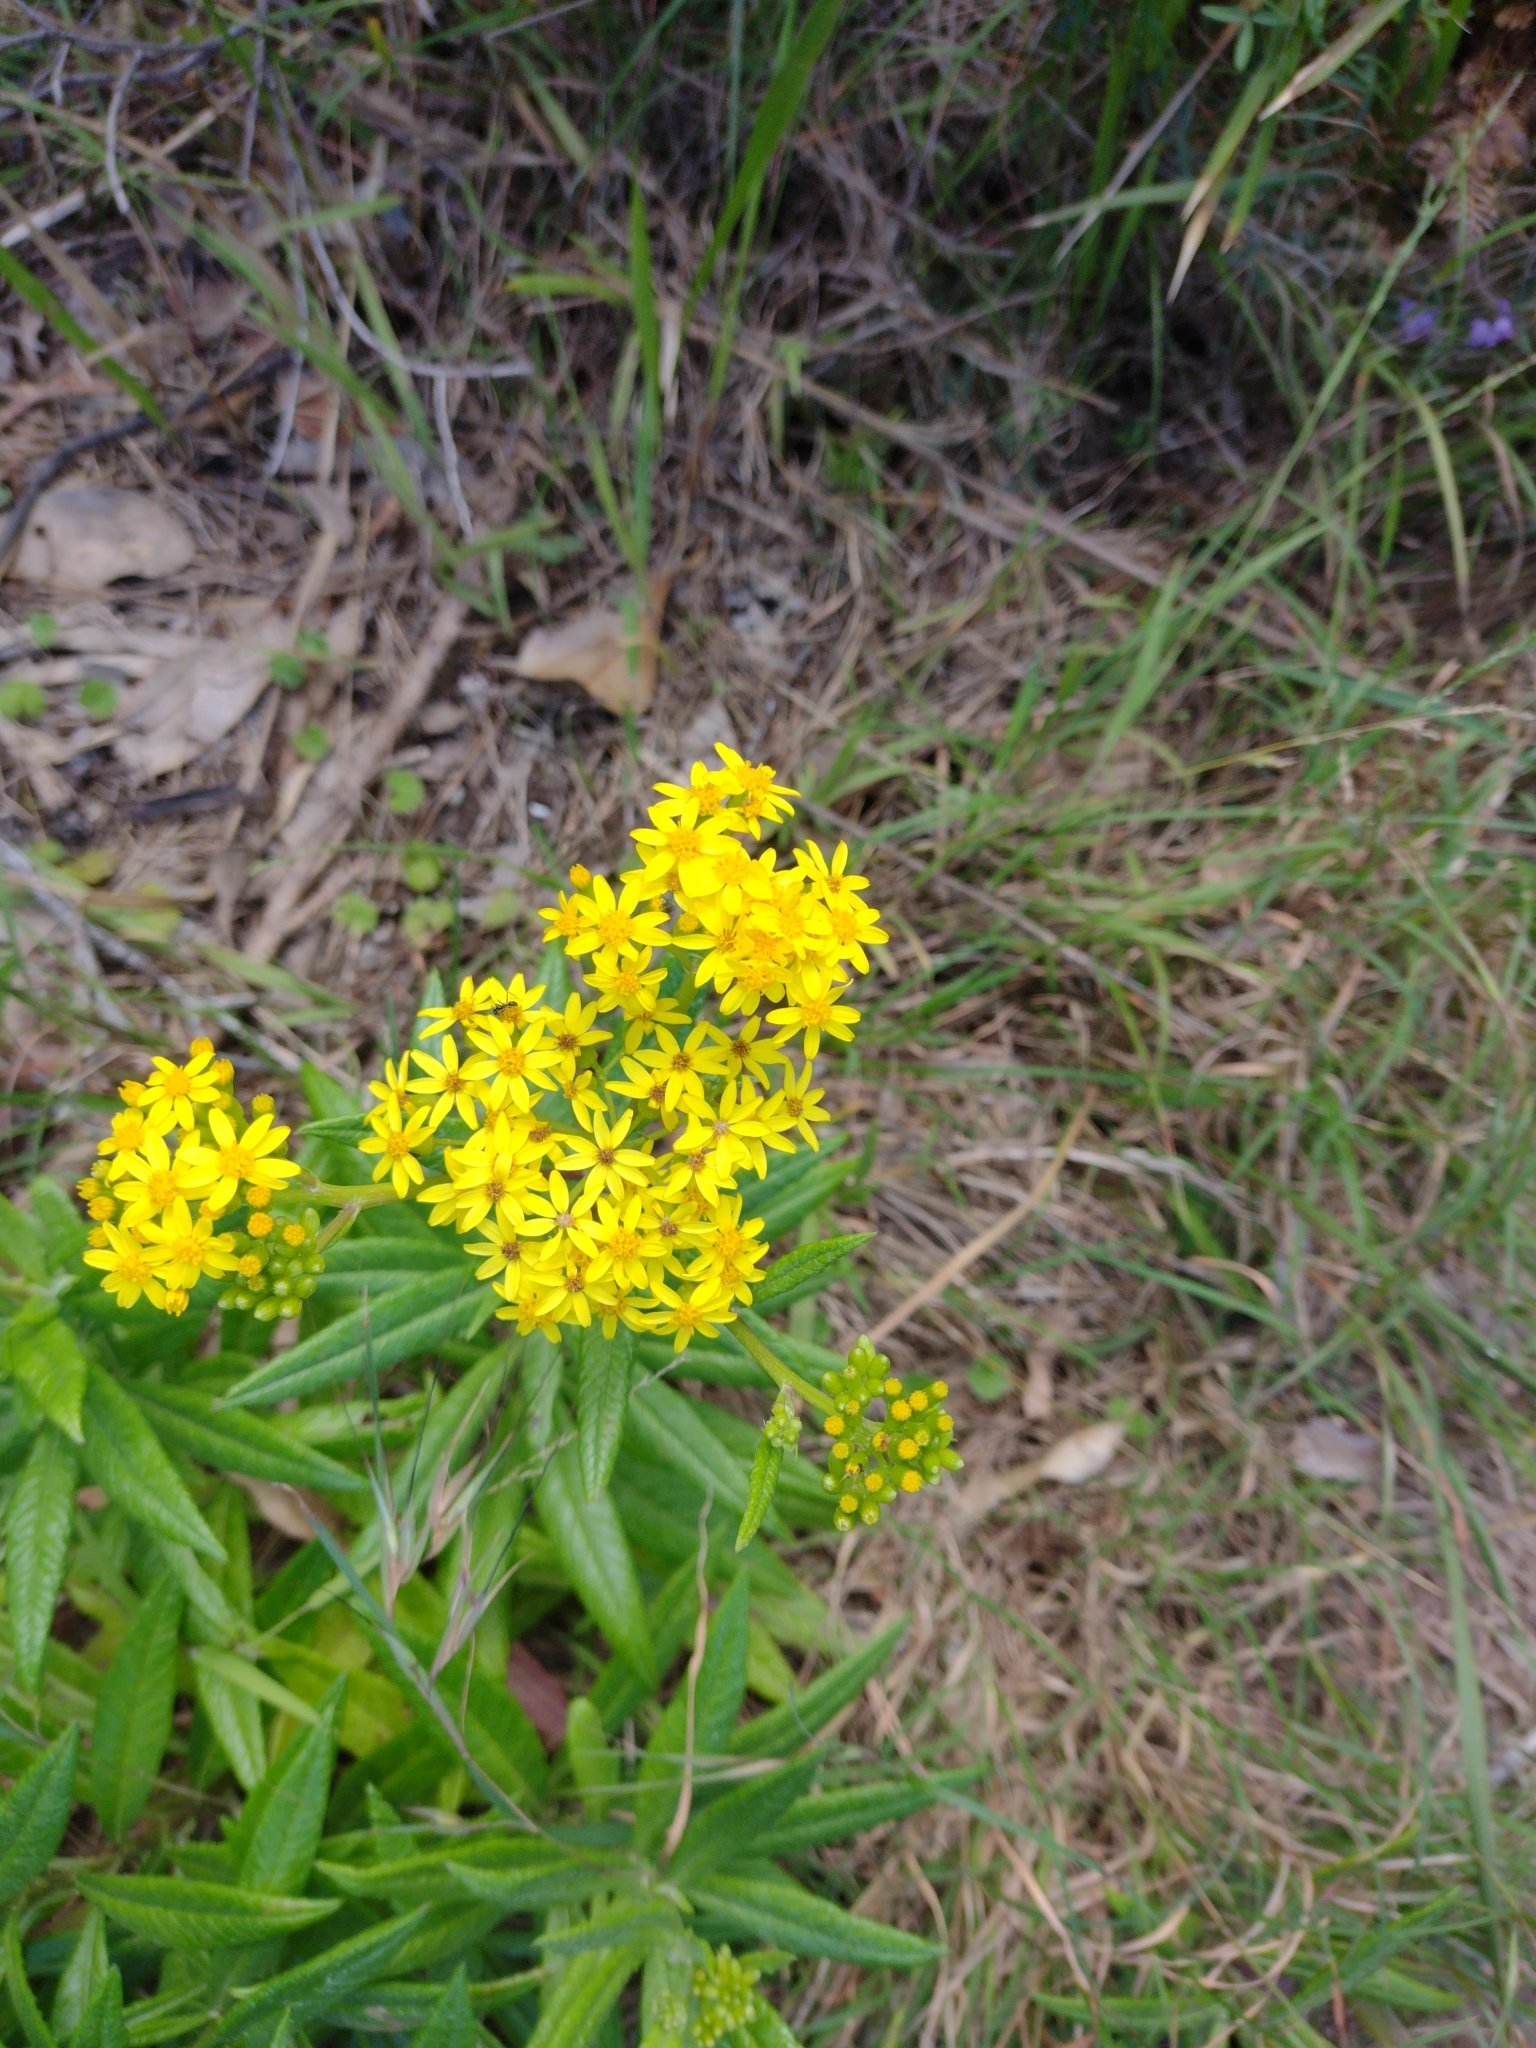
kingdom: Plantae
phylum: Tracheophyta
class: Magnoliopsida
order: Asterales
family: Asteraceae
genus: Senecio
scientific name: Senecio linearifolius
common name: Fireweed groundsel
